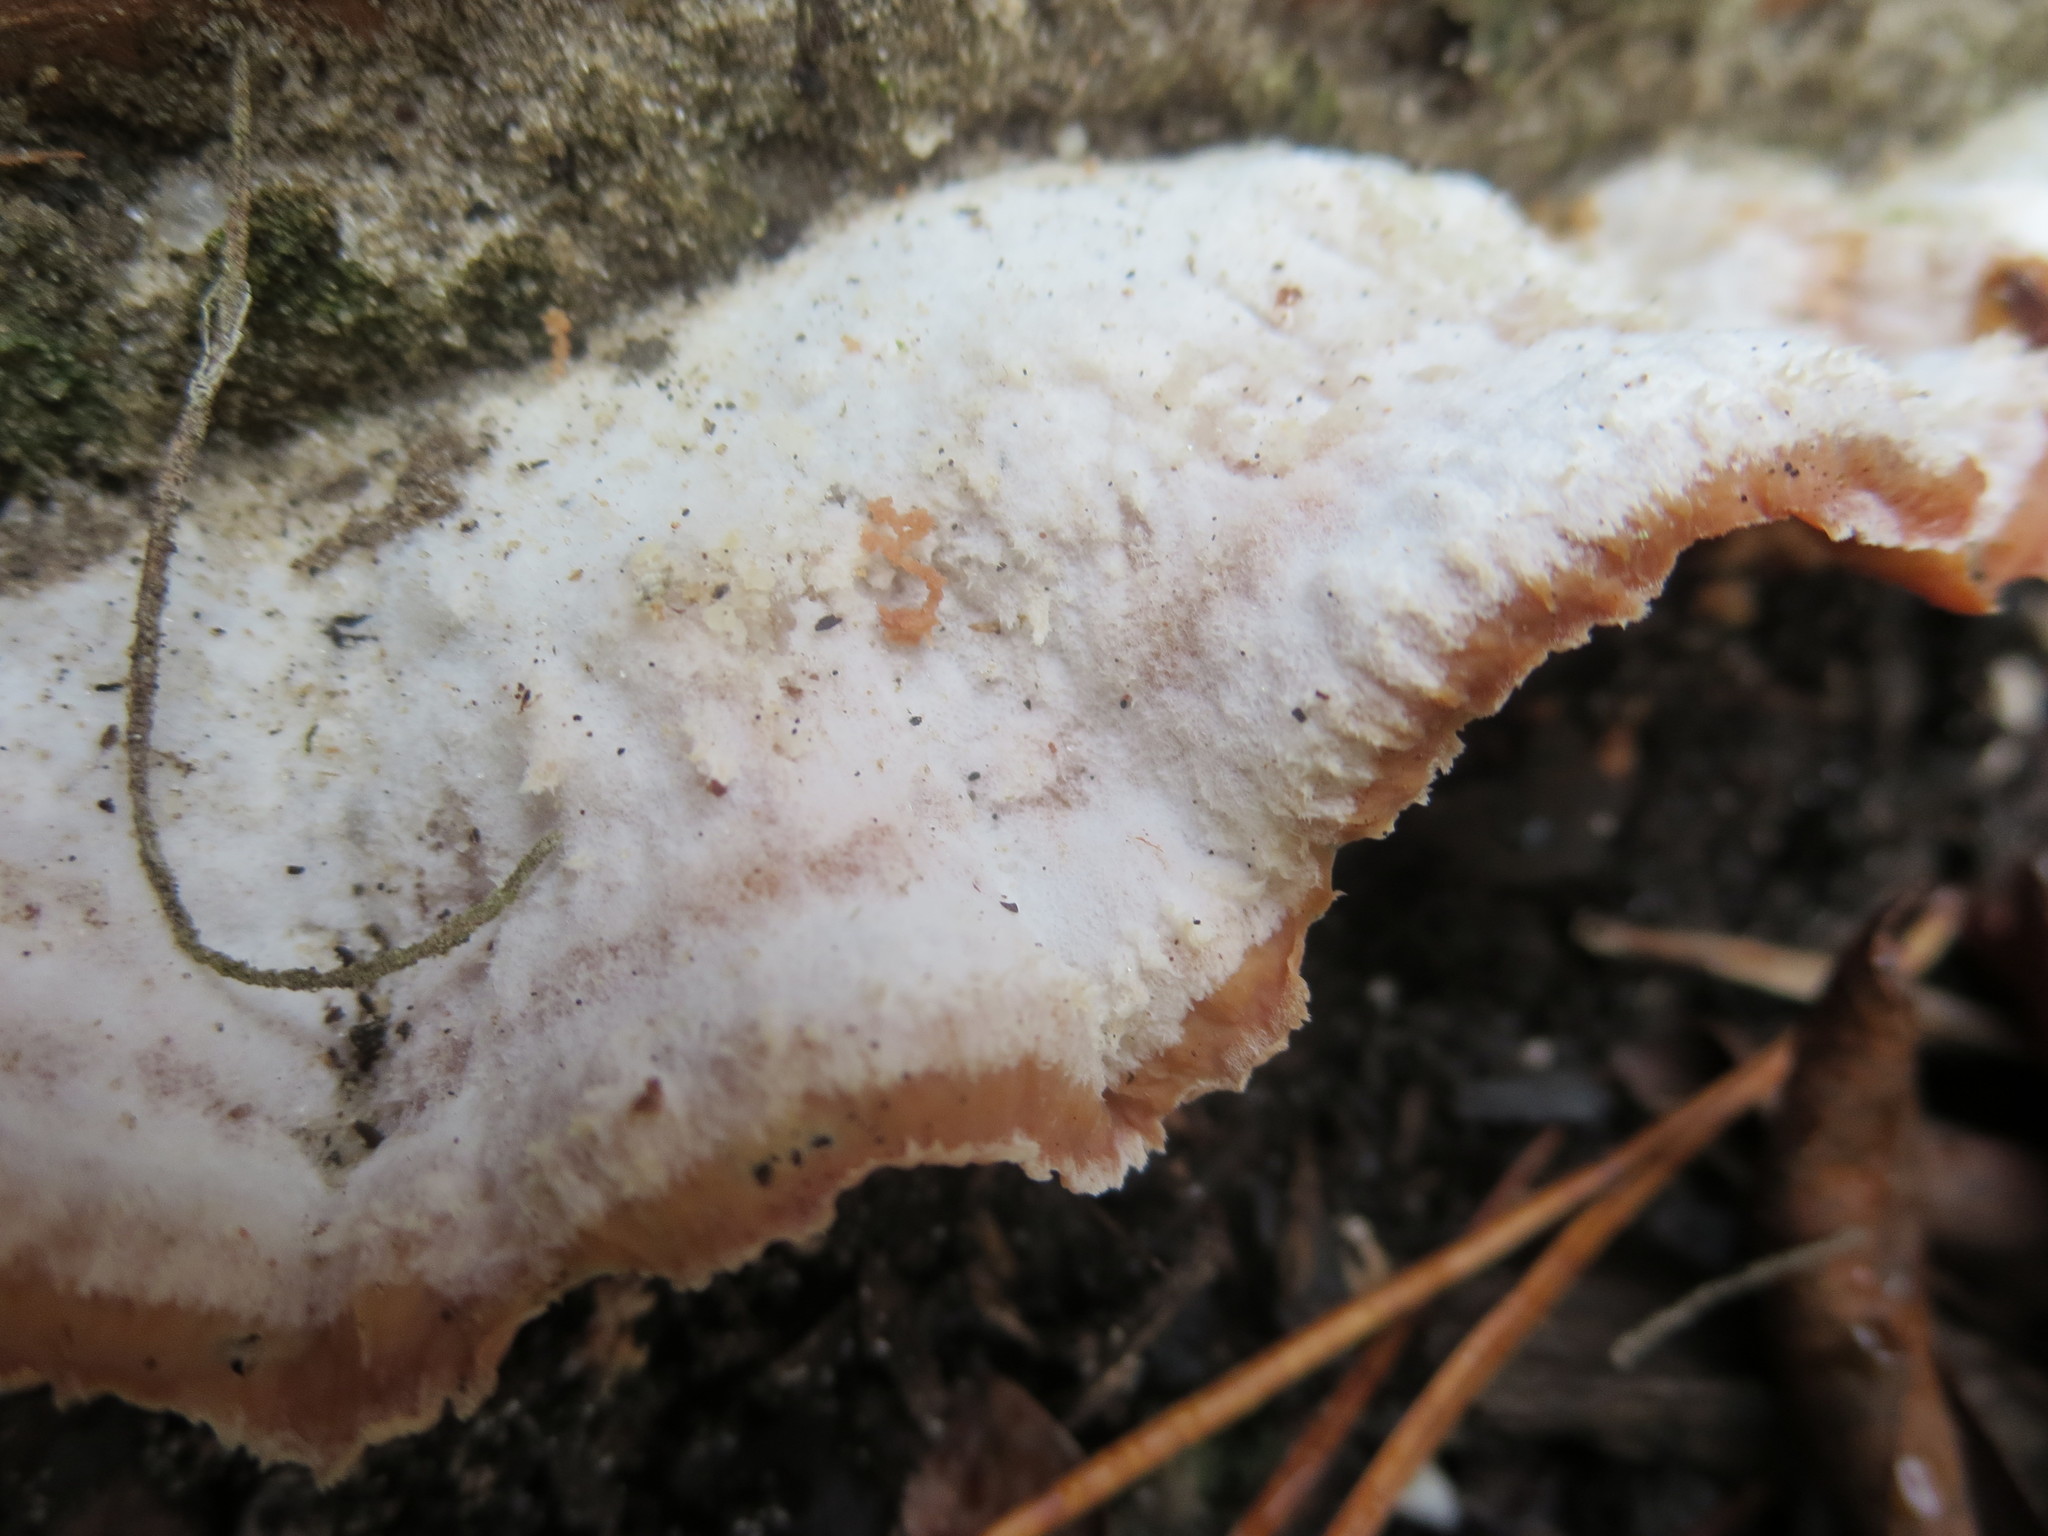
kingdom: Fungi
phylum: Basidiomycota
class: Agaricomycetes
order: Polyporales
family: Meruliaceae
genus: Phlebia
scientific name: Phlebia tremellosa
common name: Jelly rot
